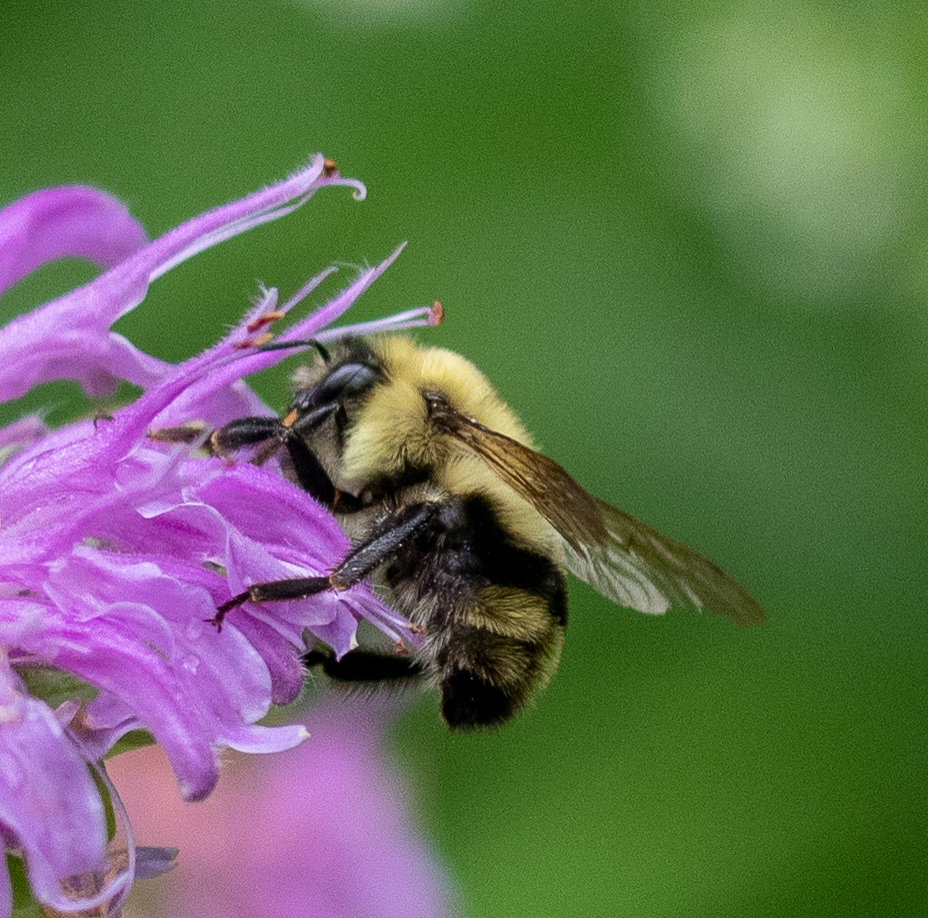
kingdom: Animalia
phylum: Arthropoda
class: Insecta
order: Hymenoptera
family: Apidae
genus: Bombus
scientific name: Bombus bimaculatus
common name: Two-spotted bumble bee
